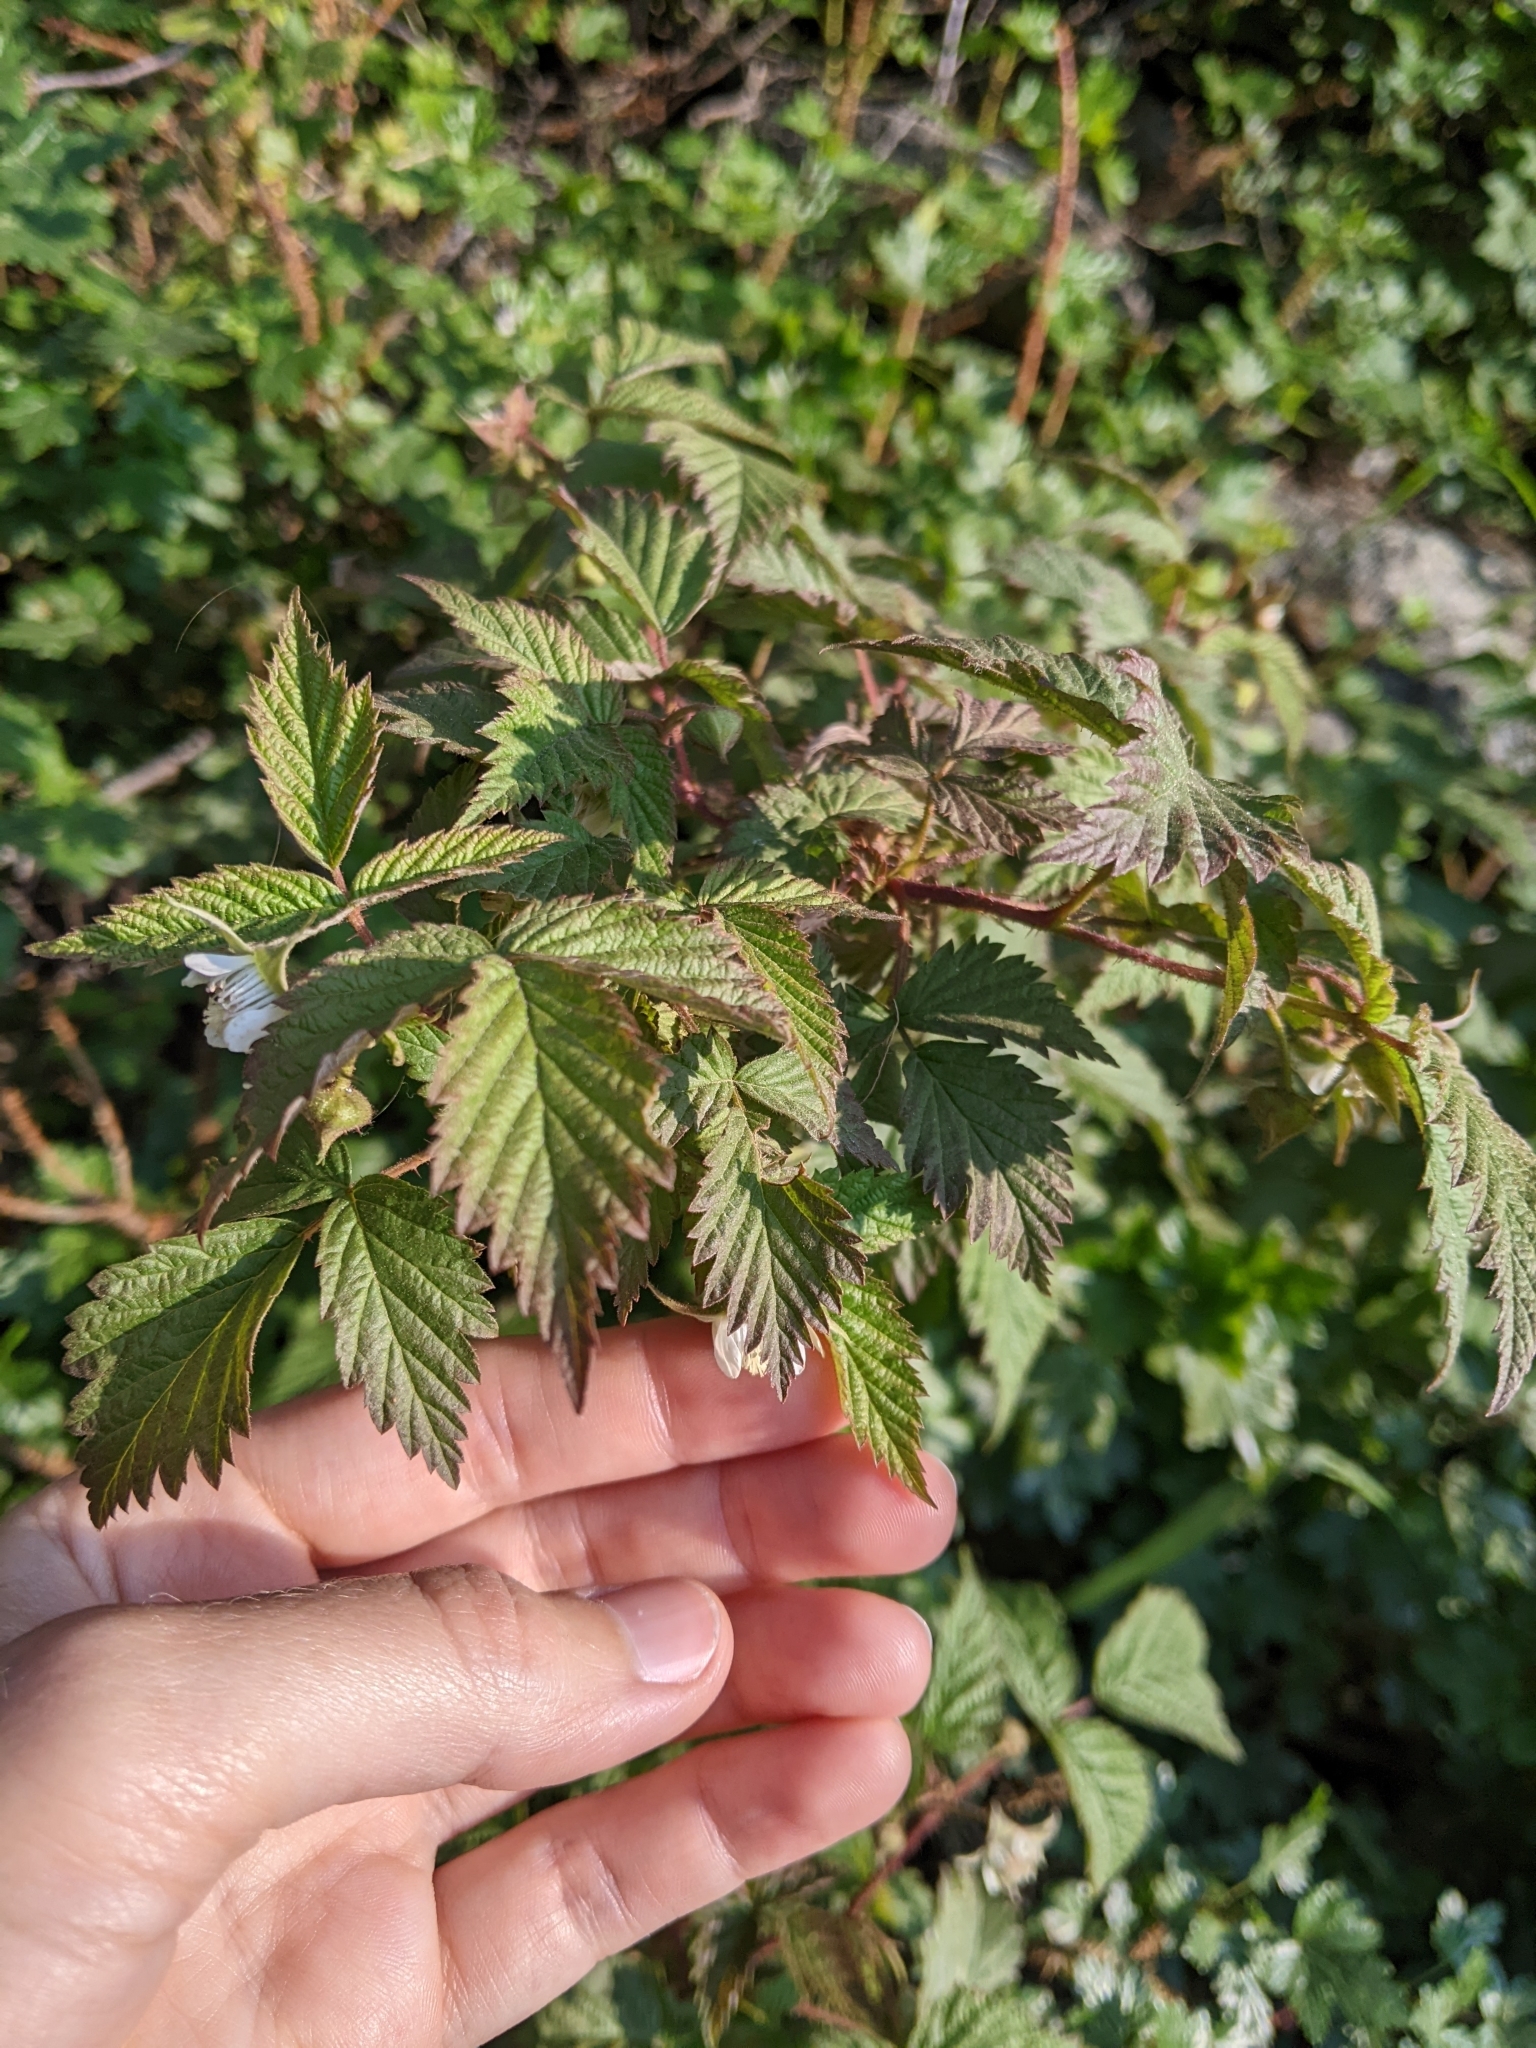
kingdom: Plantae
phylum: Tracheophyta
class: Magnoliopsida
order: Rosales
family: Rosaceae
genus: Rubus
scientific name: Rubus idaeus
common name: Raspberry
